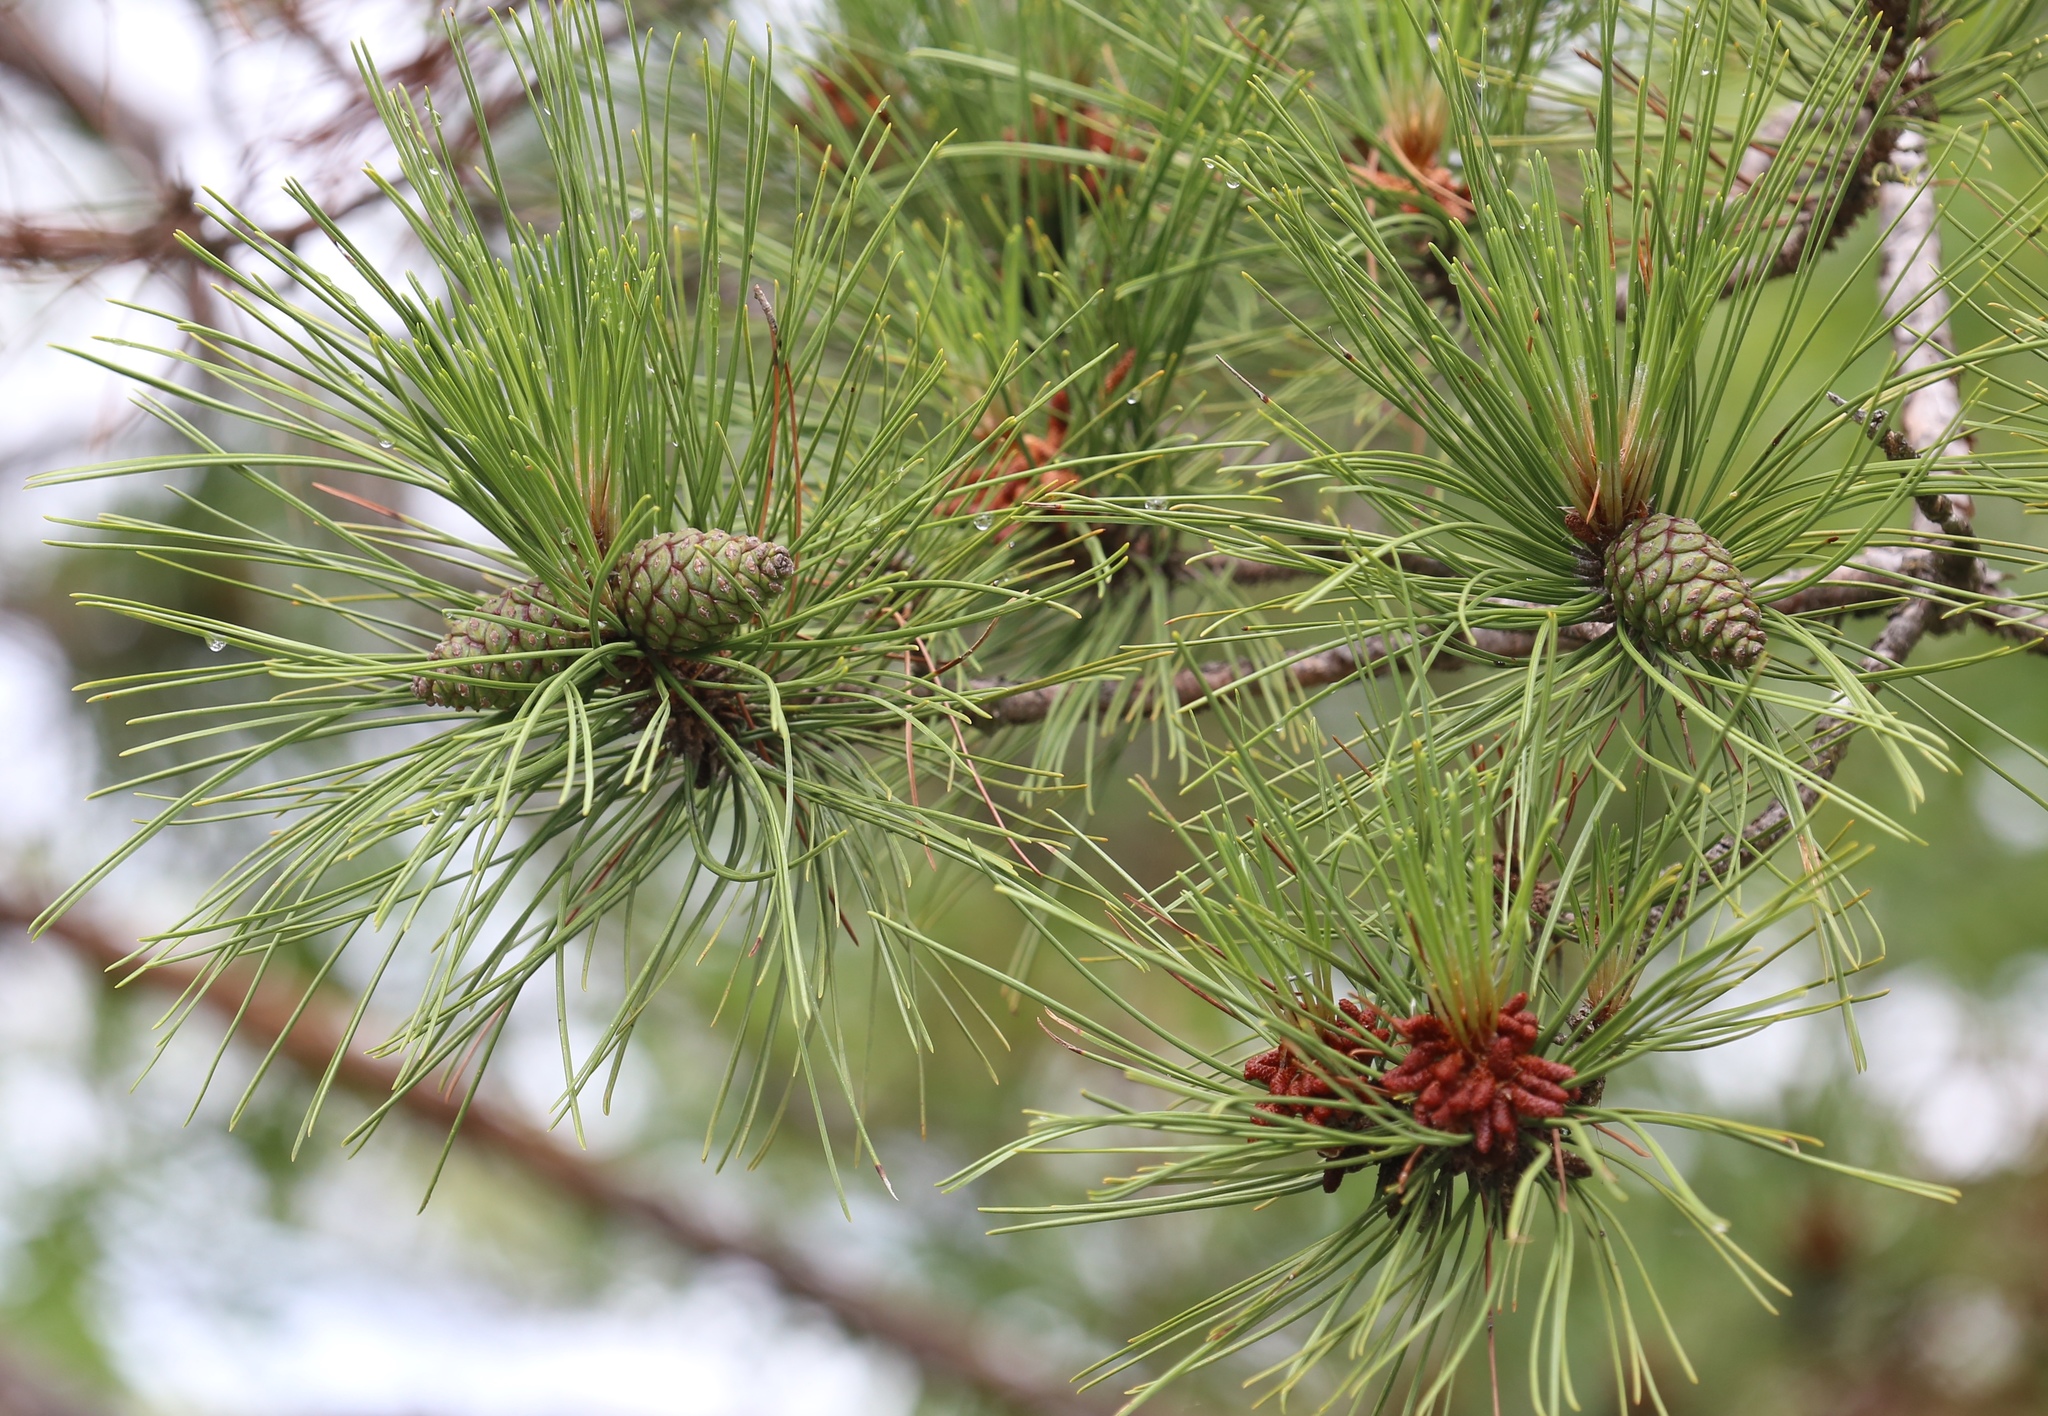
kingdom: Plantae
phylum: Tracheophyta
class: Pinopsida
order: Pinales
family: Pinaceae
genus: Pinus
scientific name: Pinus rigida
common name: Pitch pine
